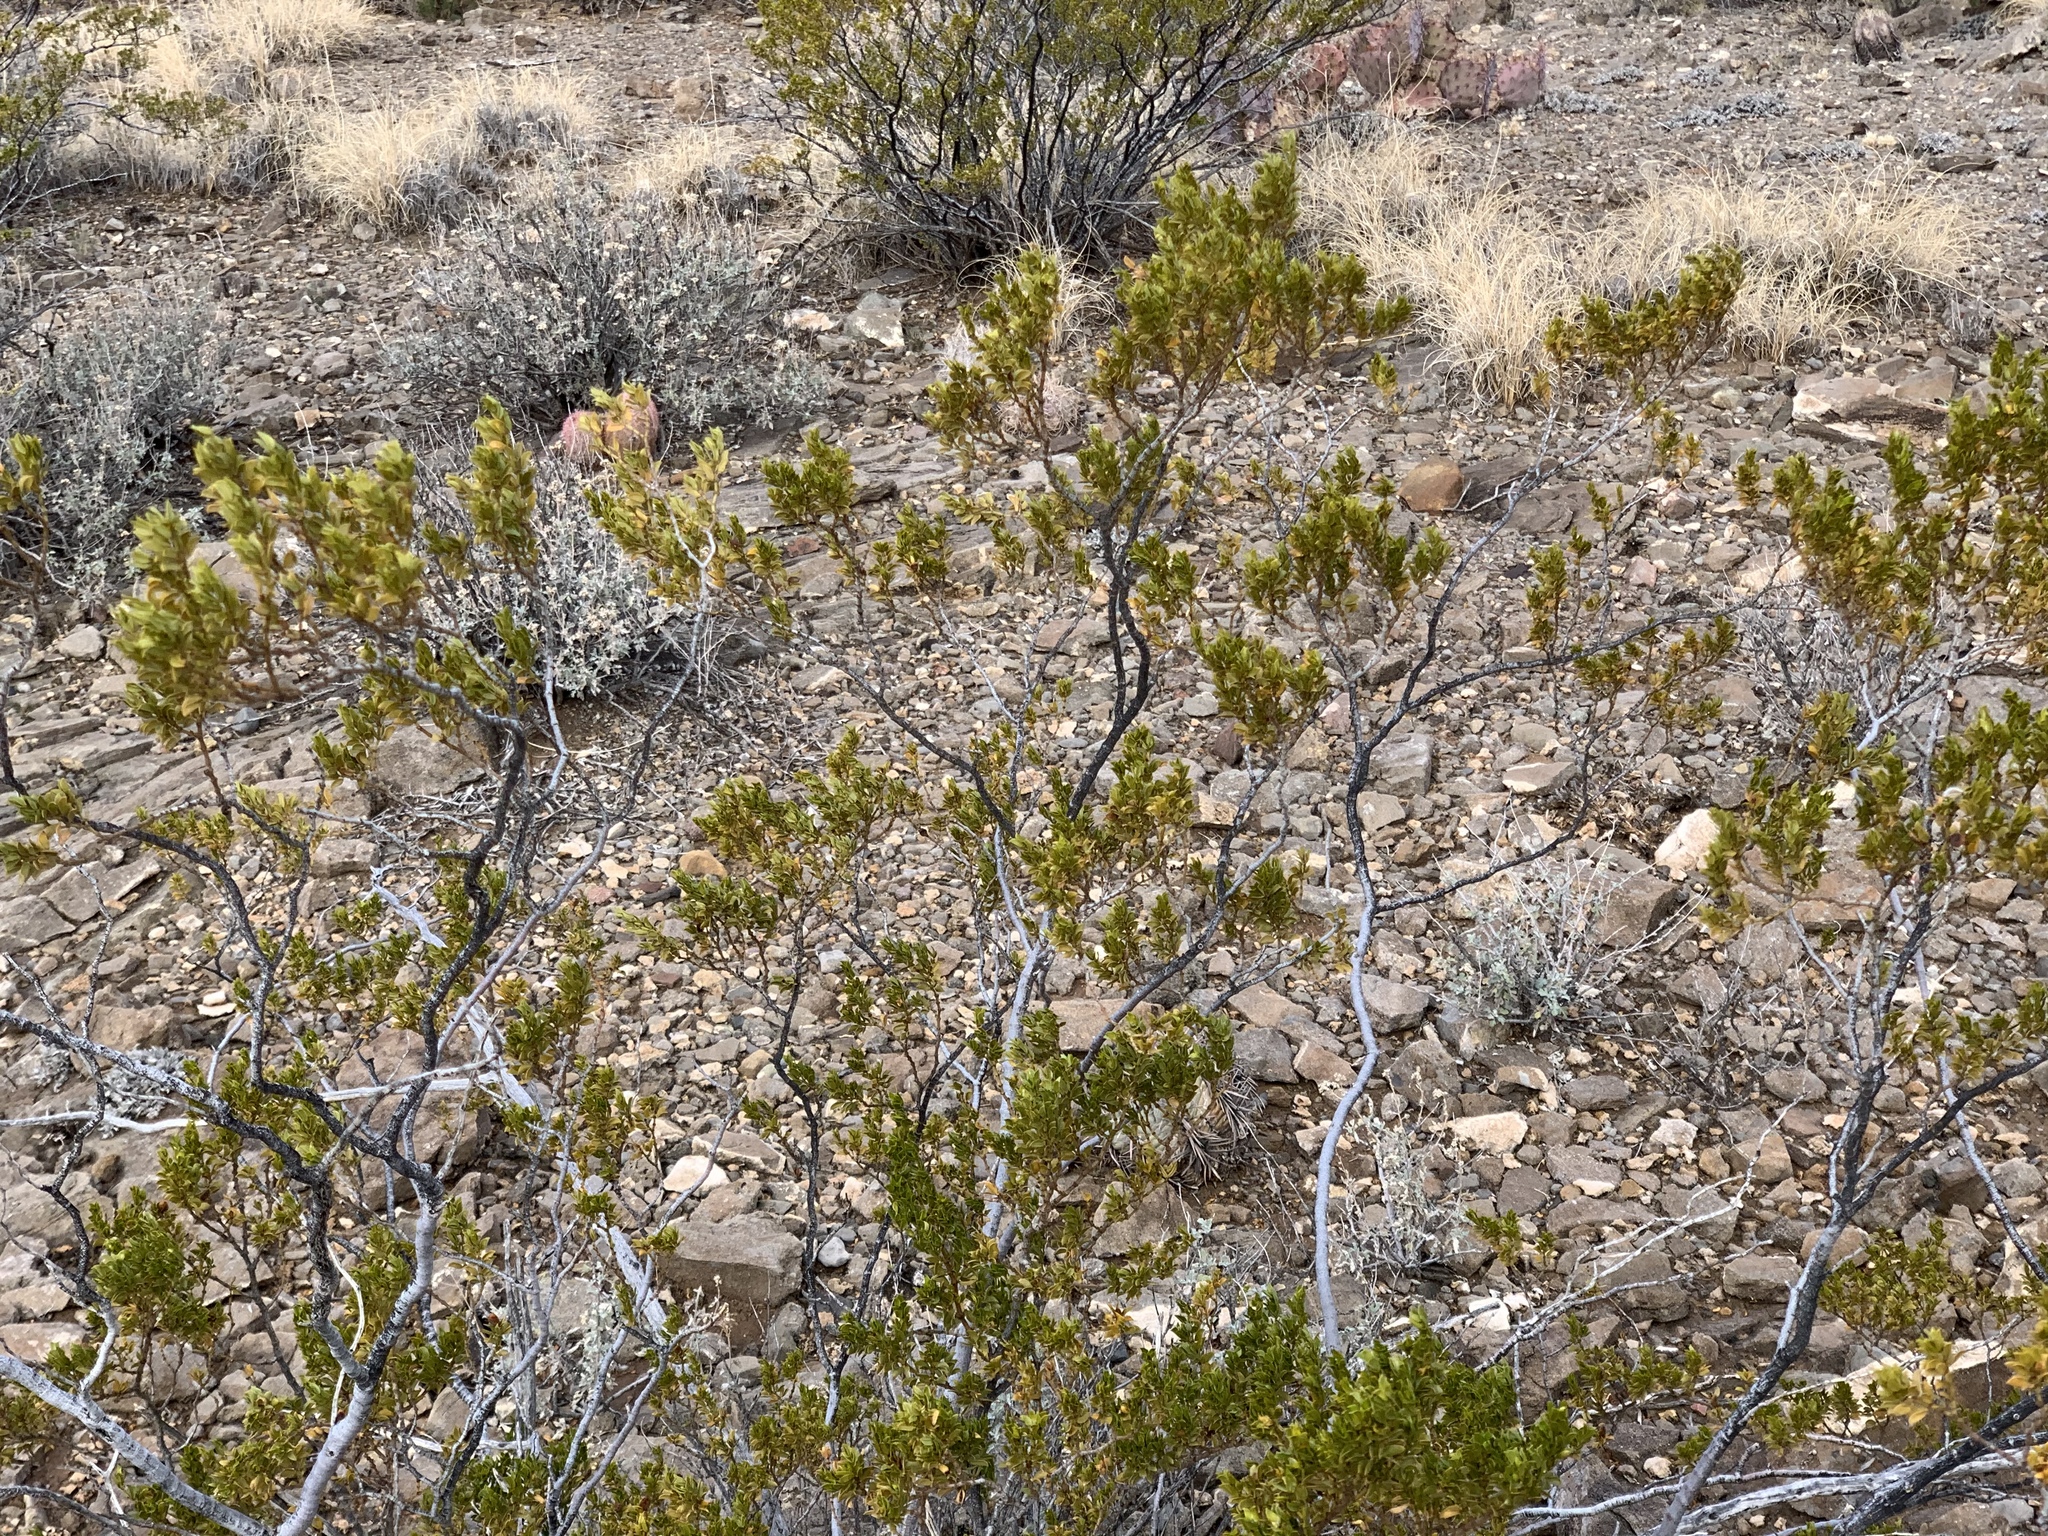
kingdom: Plantae
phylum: Tracheophyta
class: Magnoliopsida
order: Zygophyllales
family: Zygophyllaceae
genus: Larrea
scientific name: Larrea tridentata
